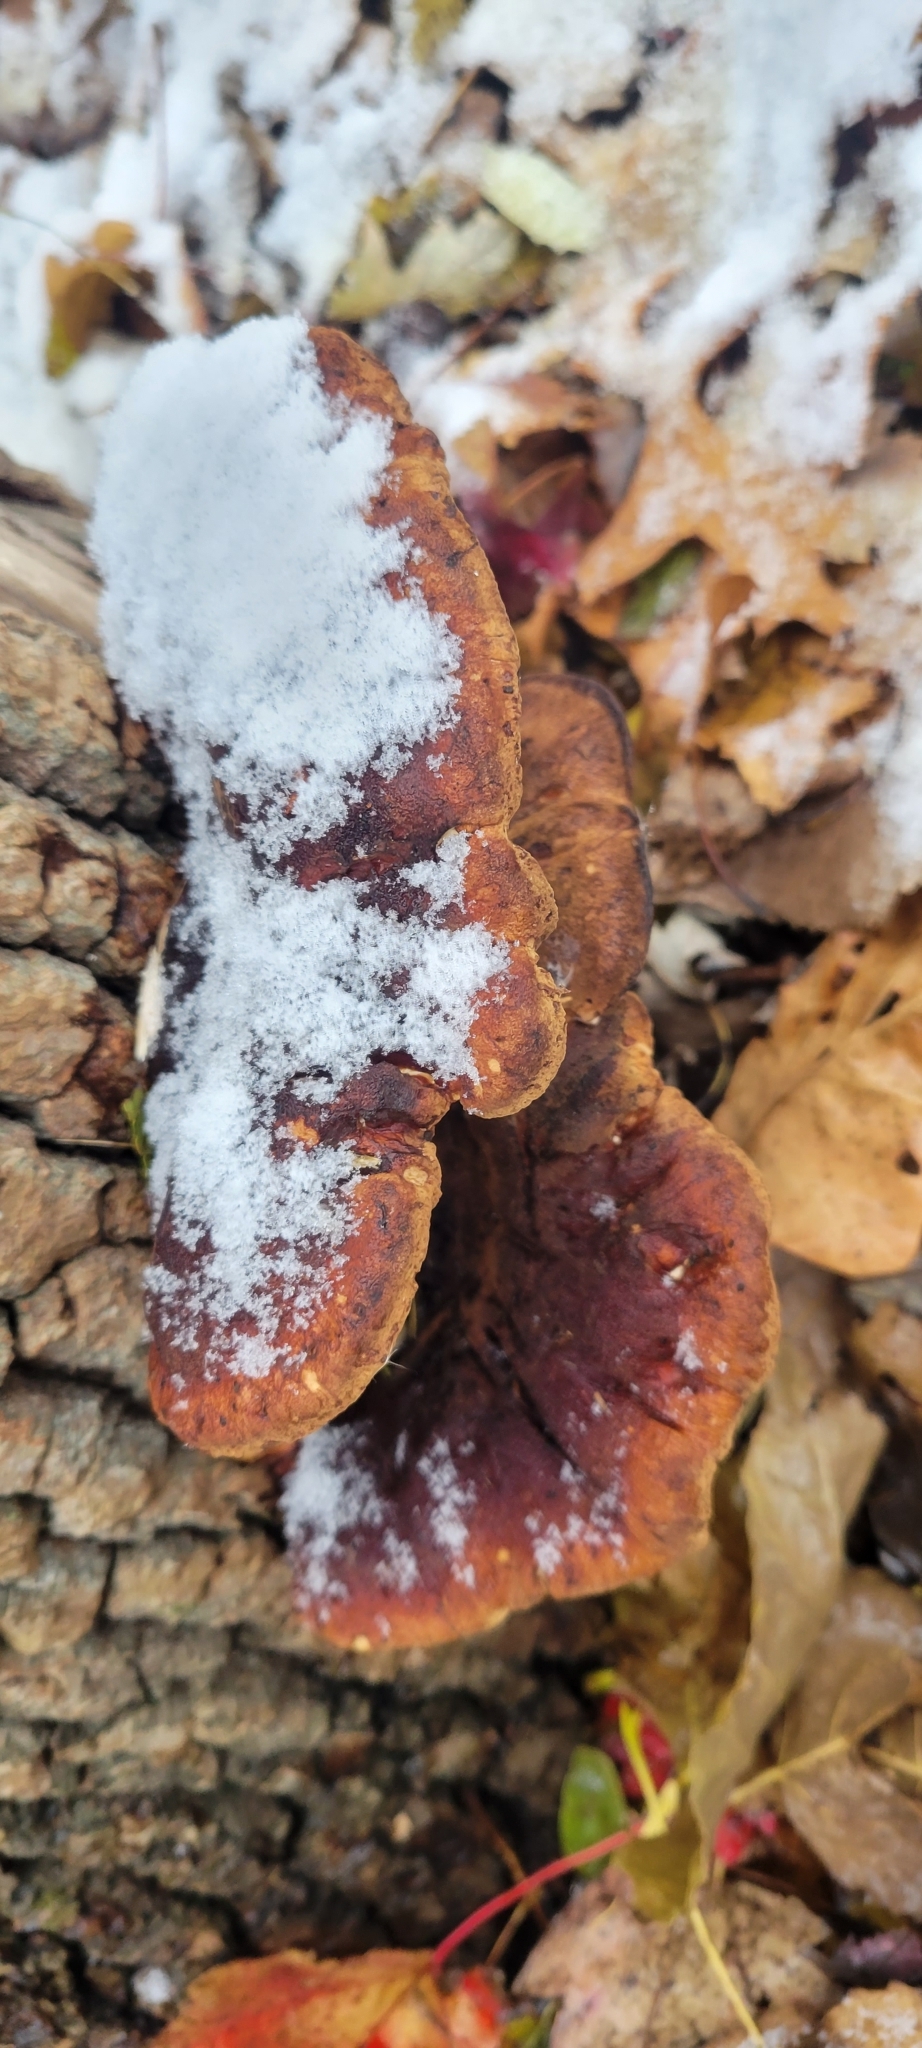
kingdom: Fungi
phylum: Basidiomycota
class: Agaricomycetes
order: Polyporales
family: Ischnodermataceae
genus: Ischnoderma
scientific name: Ischnoderma resinosum
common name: Resinous polypore
